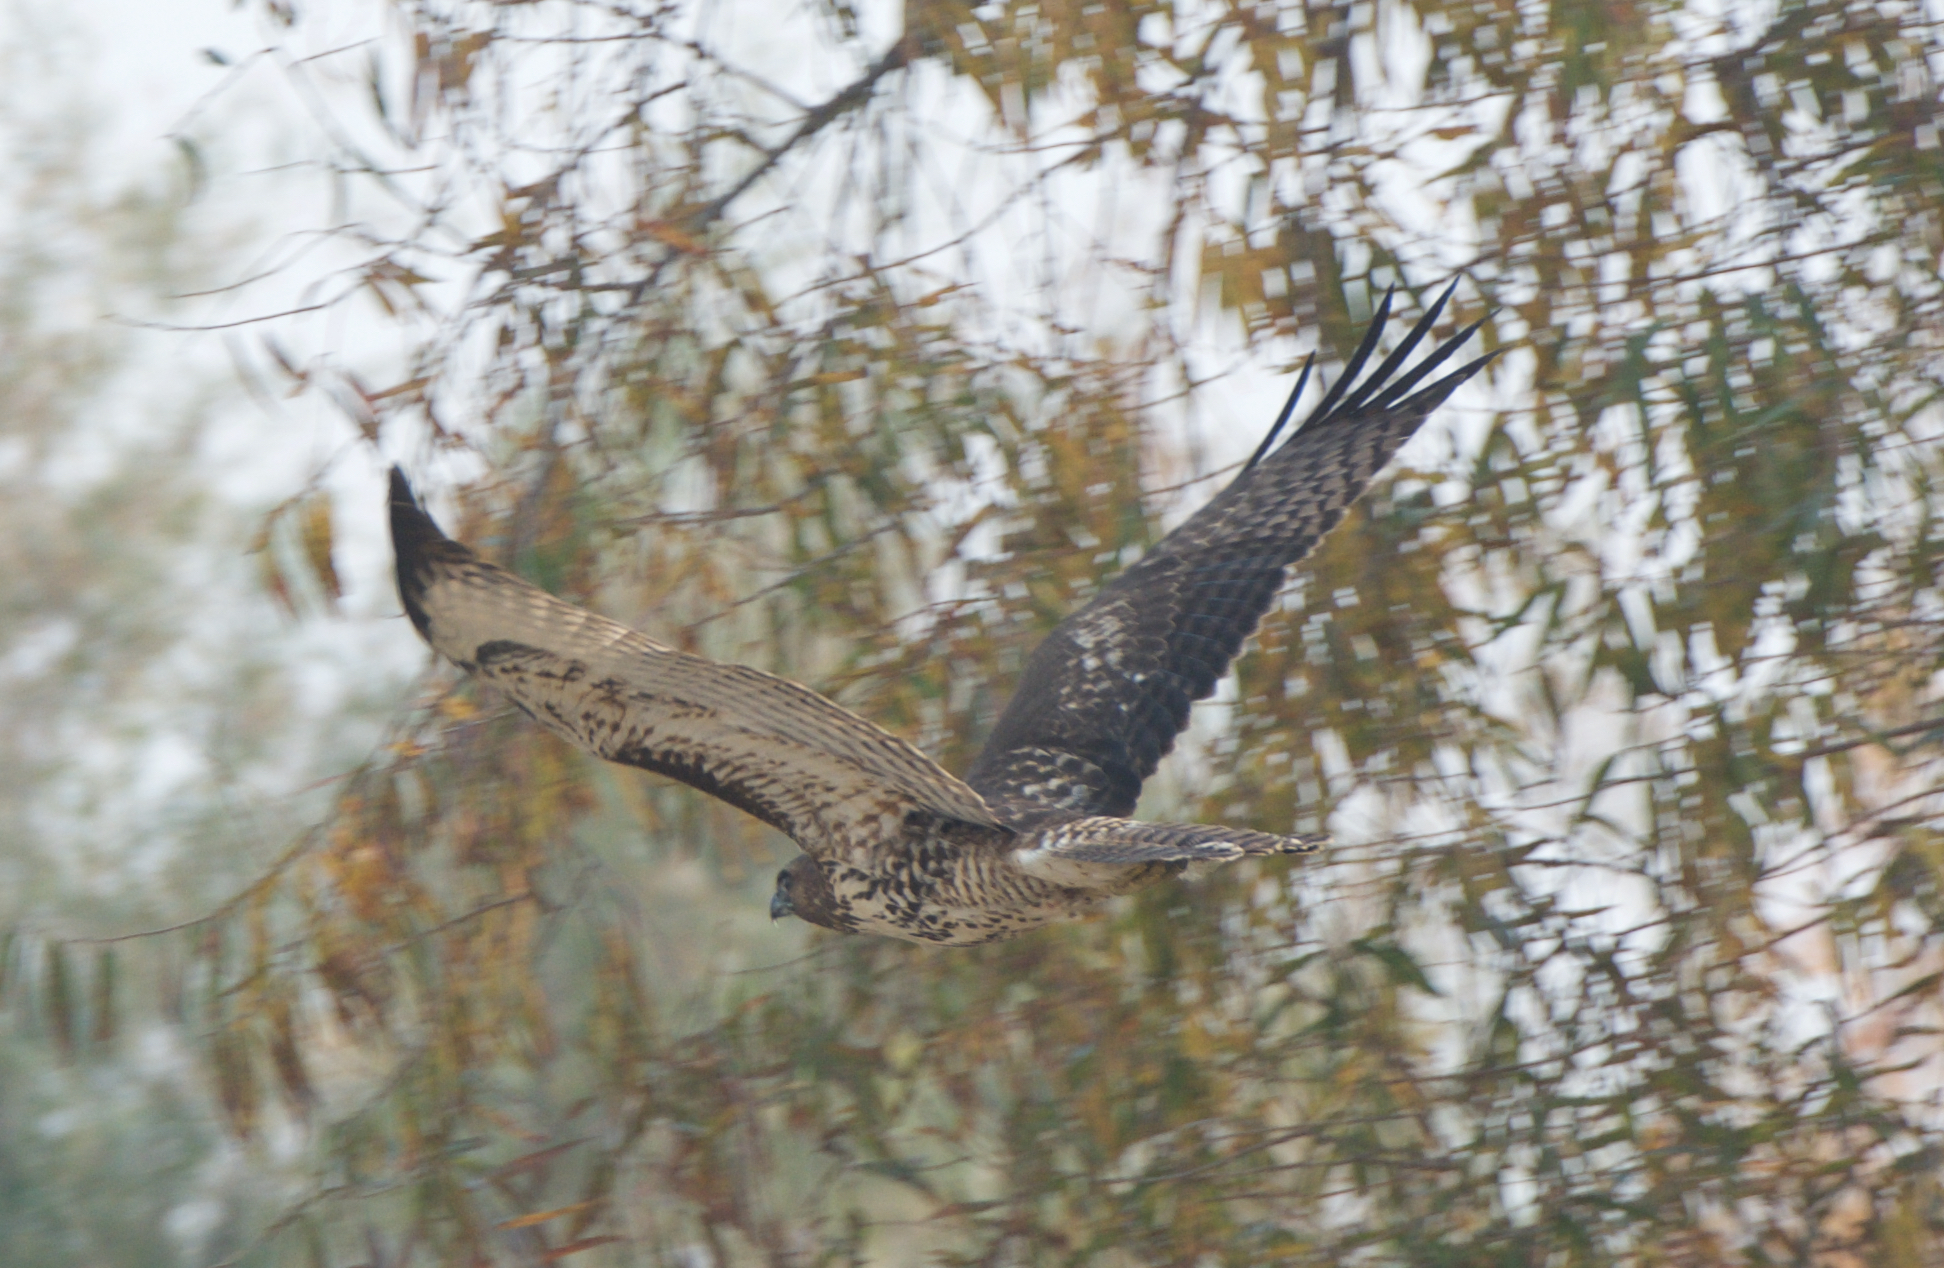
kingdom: Animalia
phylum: Chordata
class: Aves
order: Accipitriformes
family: Accipitridae
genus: Buteo
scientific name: Buteo jamaicensis
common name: Red-tailed hawk
